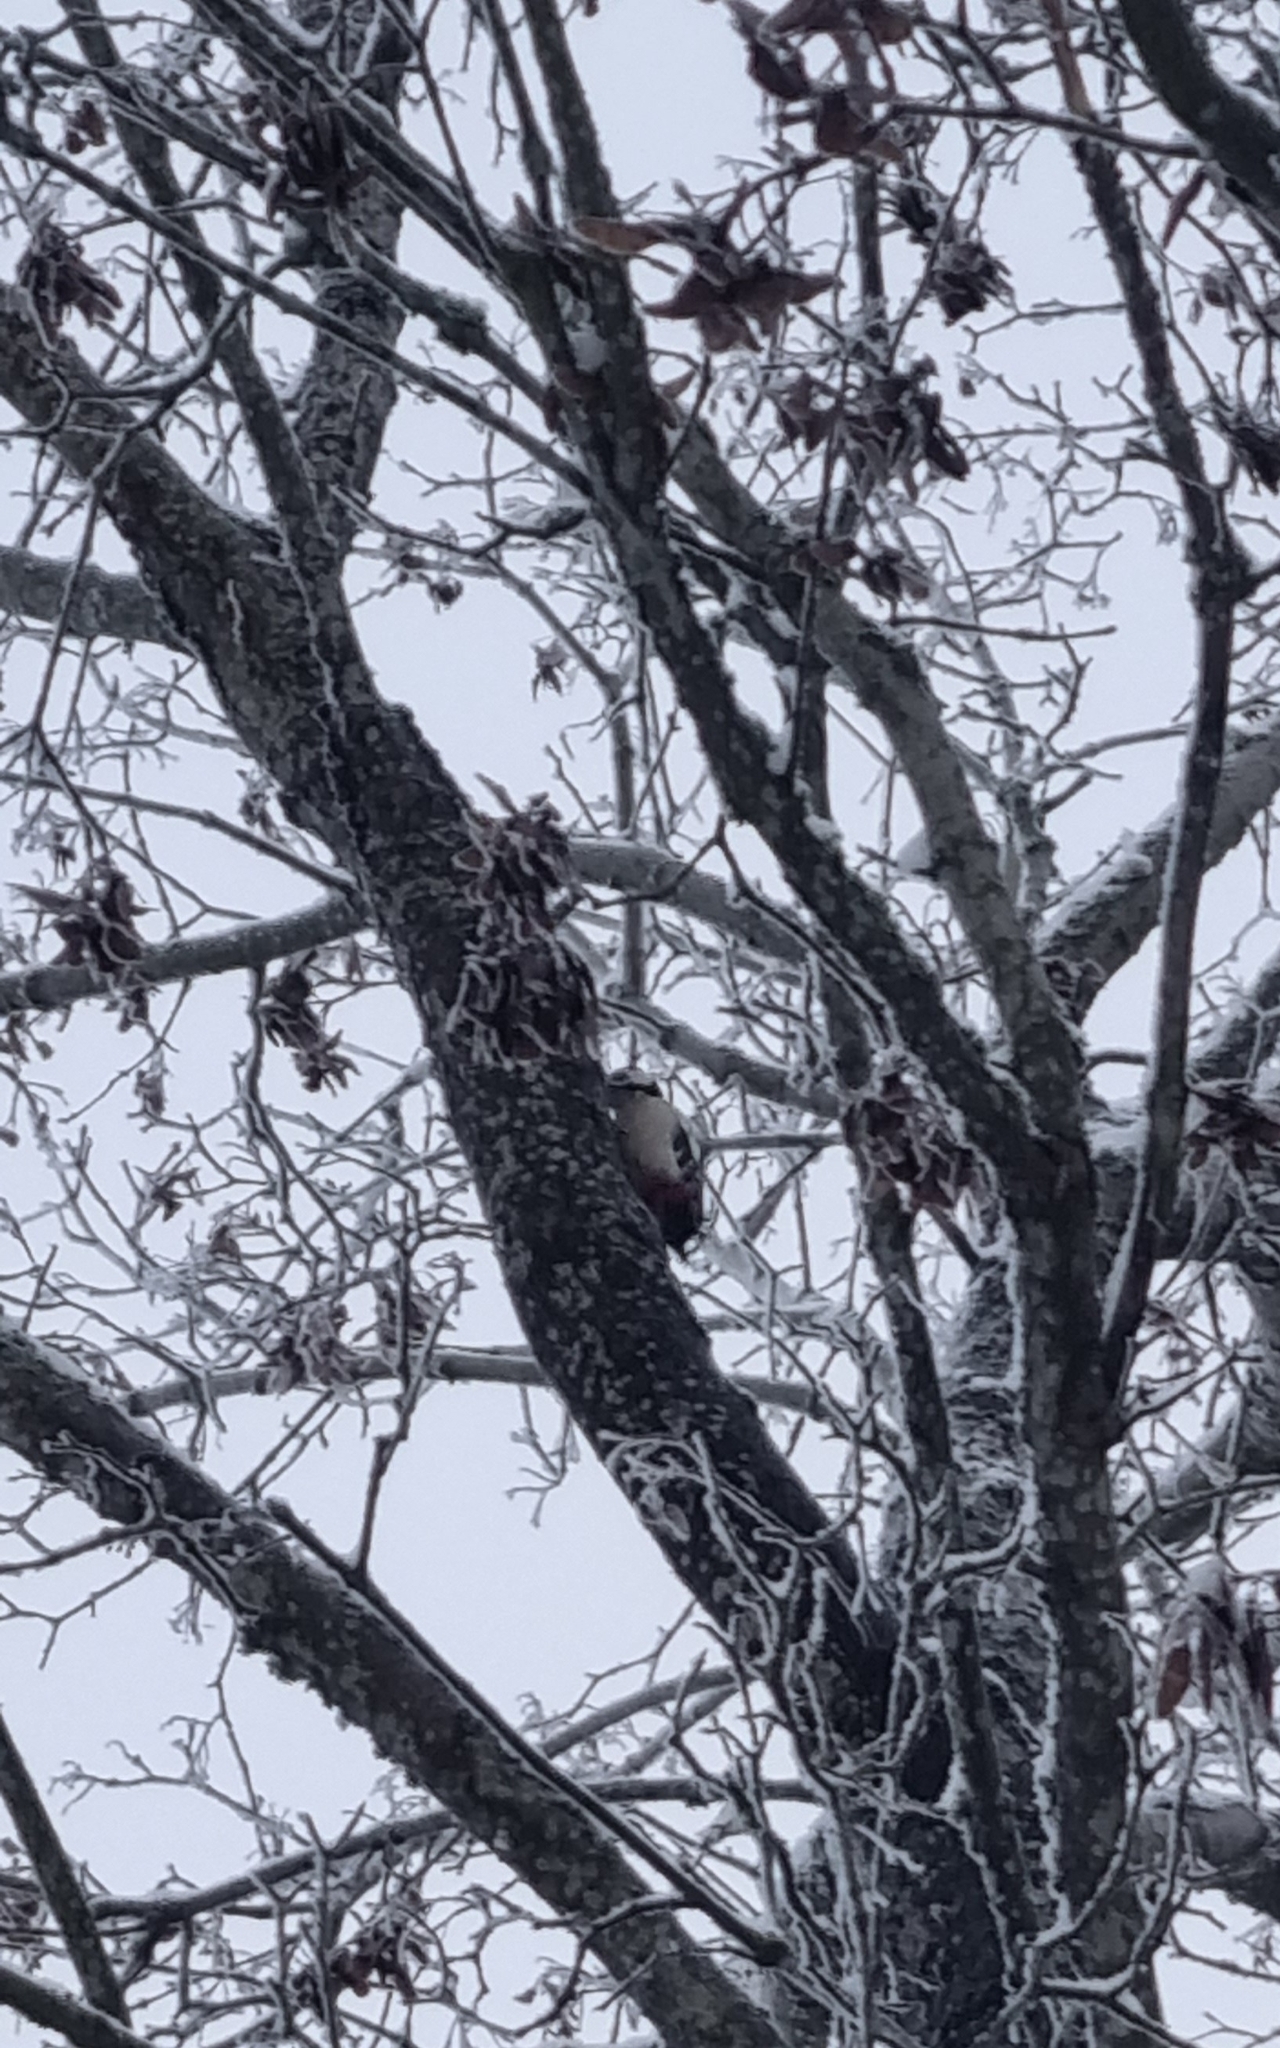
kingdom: Animalia
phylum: Chordata
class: Aves
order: Piciformes
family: Picidae
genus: Dendrocopos
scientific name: Dendrocopos major
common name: Great spotted woodpecker
